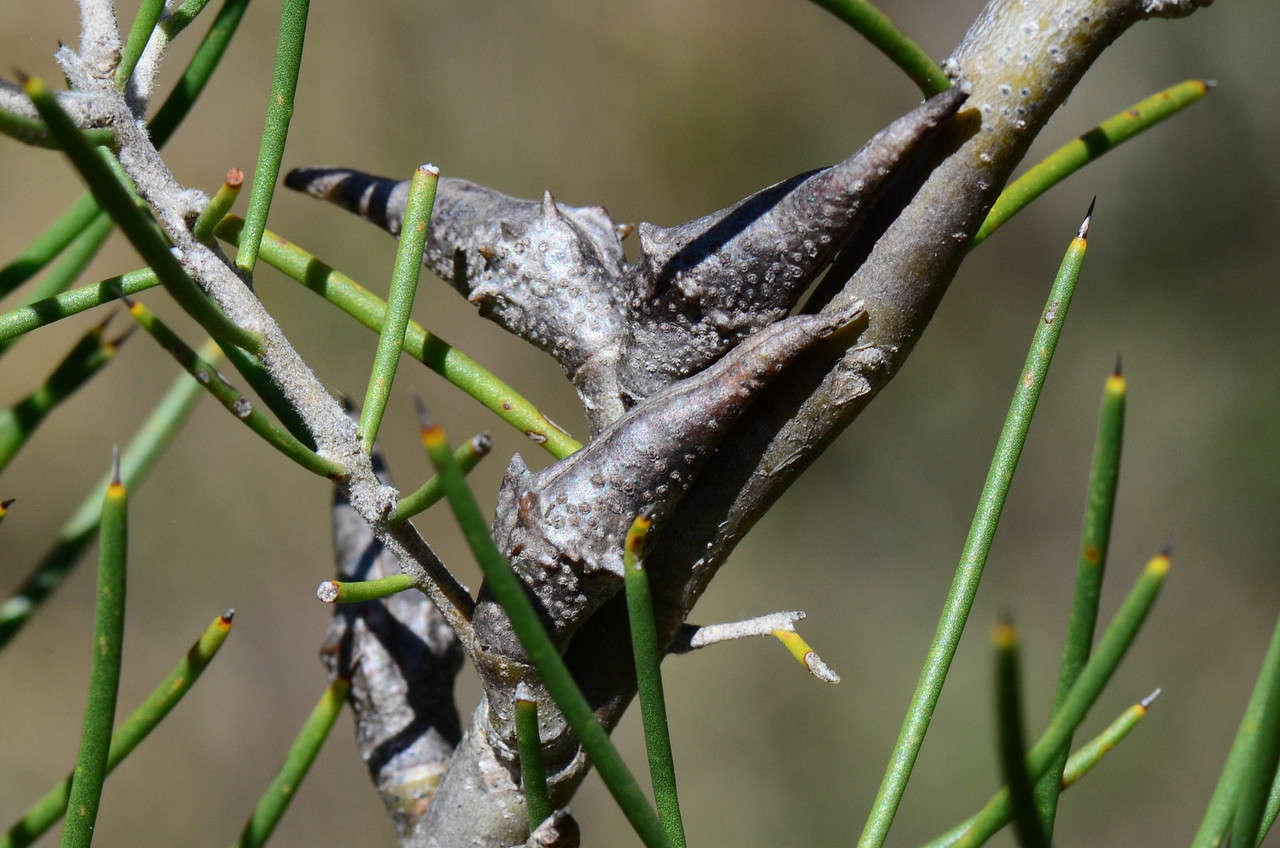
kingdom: Plantae
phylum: Tracheophyta
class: Magnoliopsida
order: Proteales
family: Proteaceae
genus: Hakea
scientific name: Hakea teretifolia
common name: Dagger hakea
